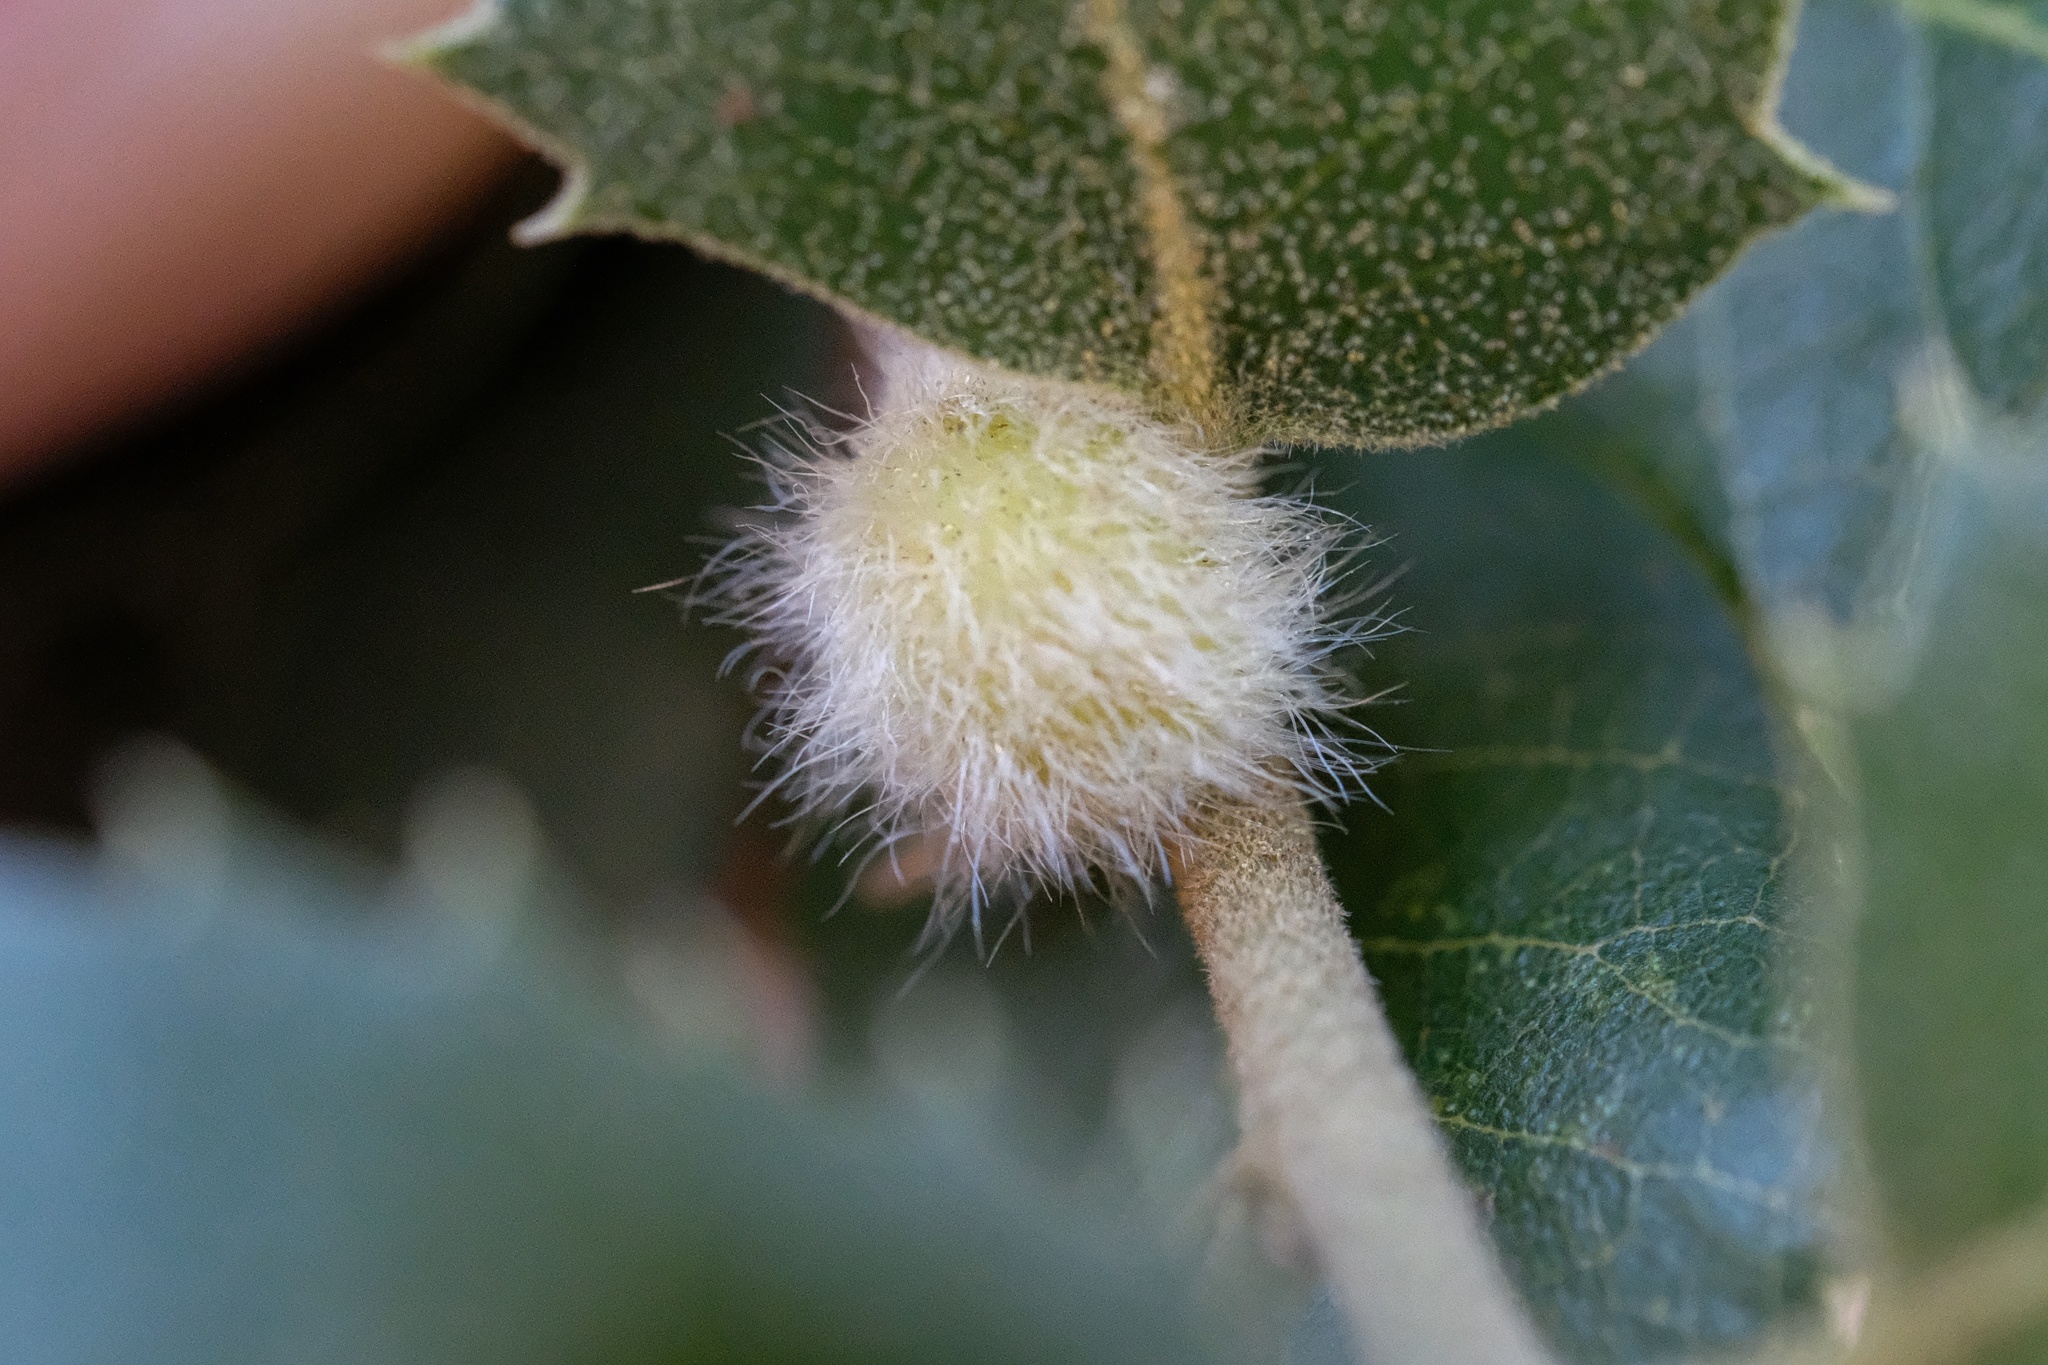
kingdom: Animalia
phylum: Arthropoda
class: Insecta
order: Hymenoptera
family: Cynipidae
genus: Disholandricus
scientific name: Disholandricus
